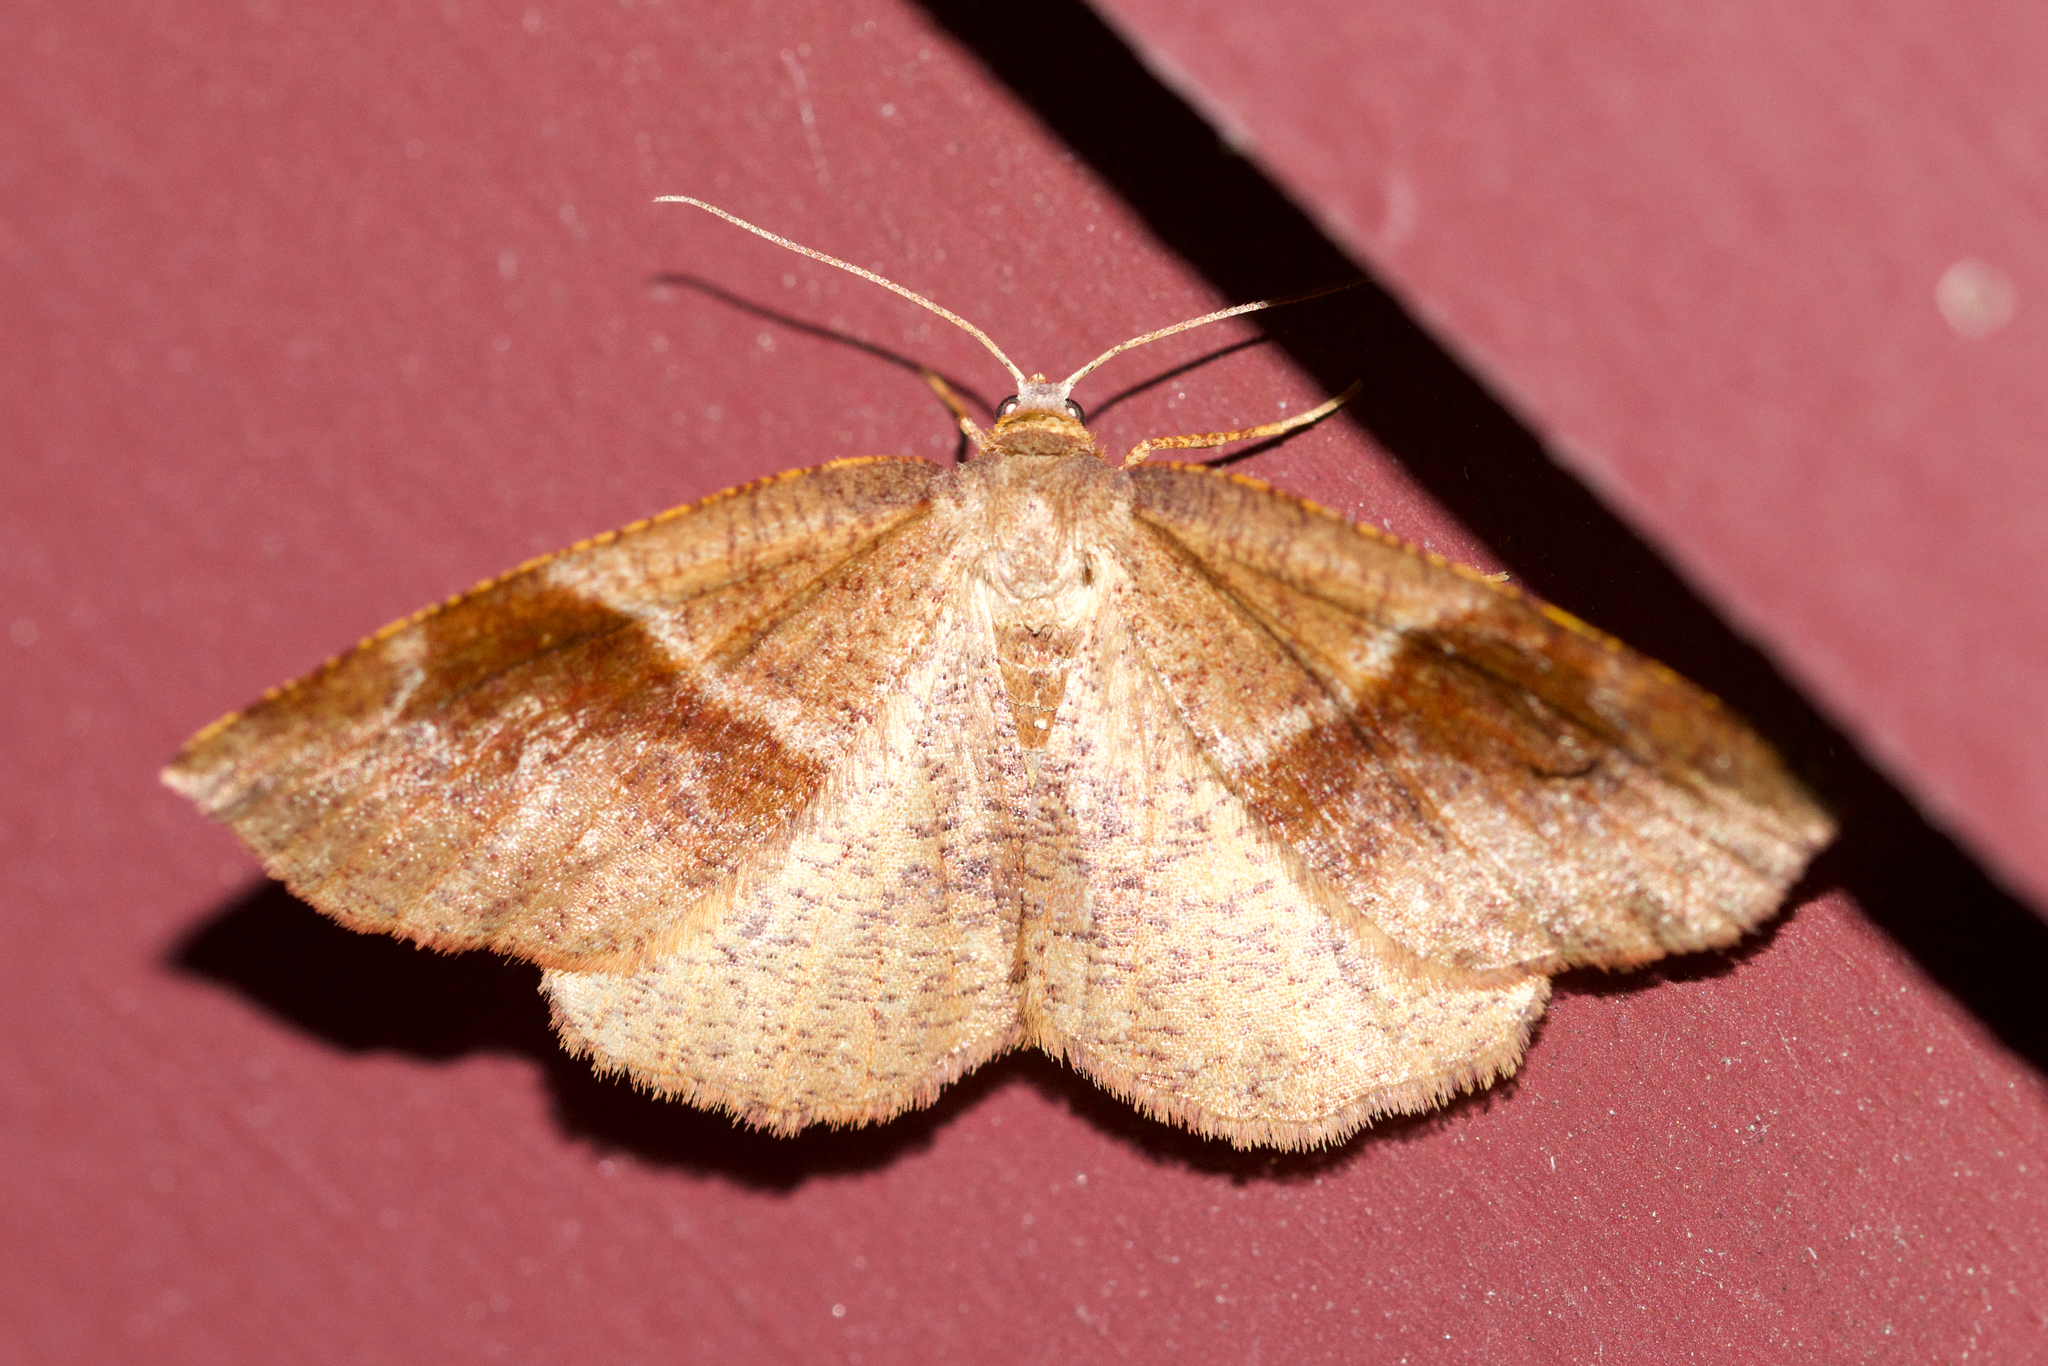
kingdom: Animalia
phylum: Arthropoda
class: Insecta
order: Lepidoptera
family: Geometridae
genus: Plagodis
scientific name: Plagodis pulveraria
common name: Barred umber
